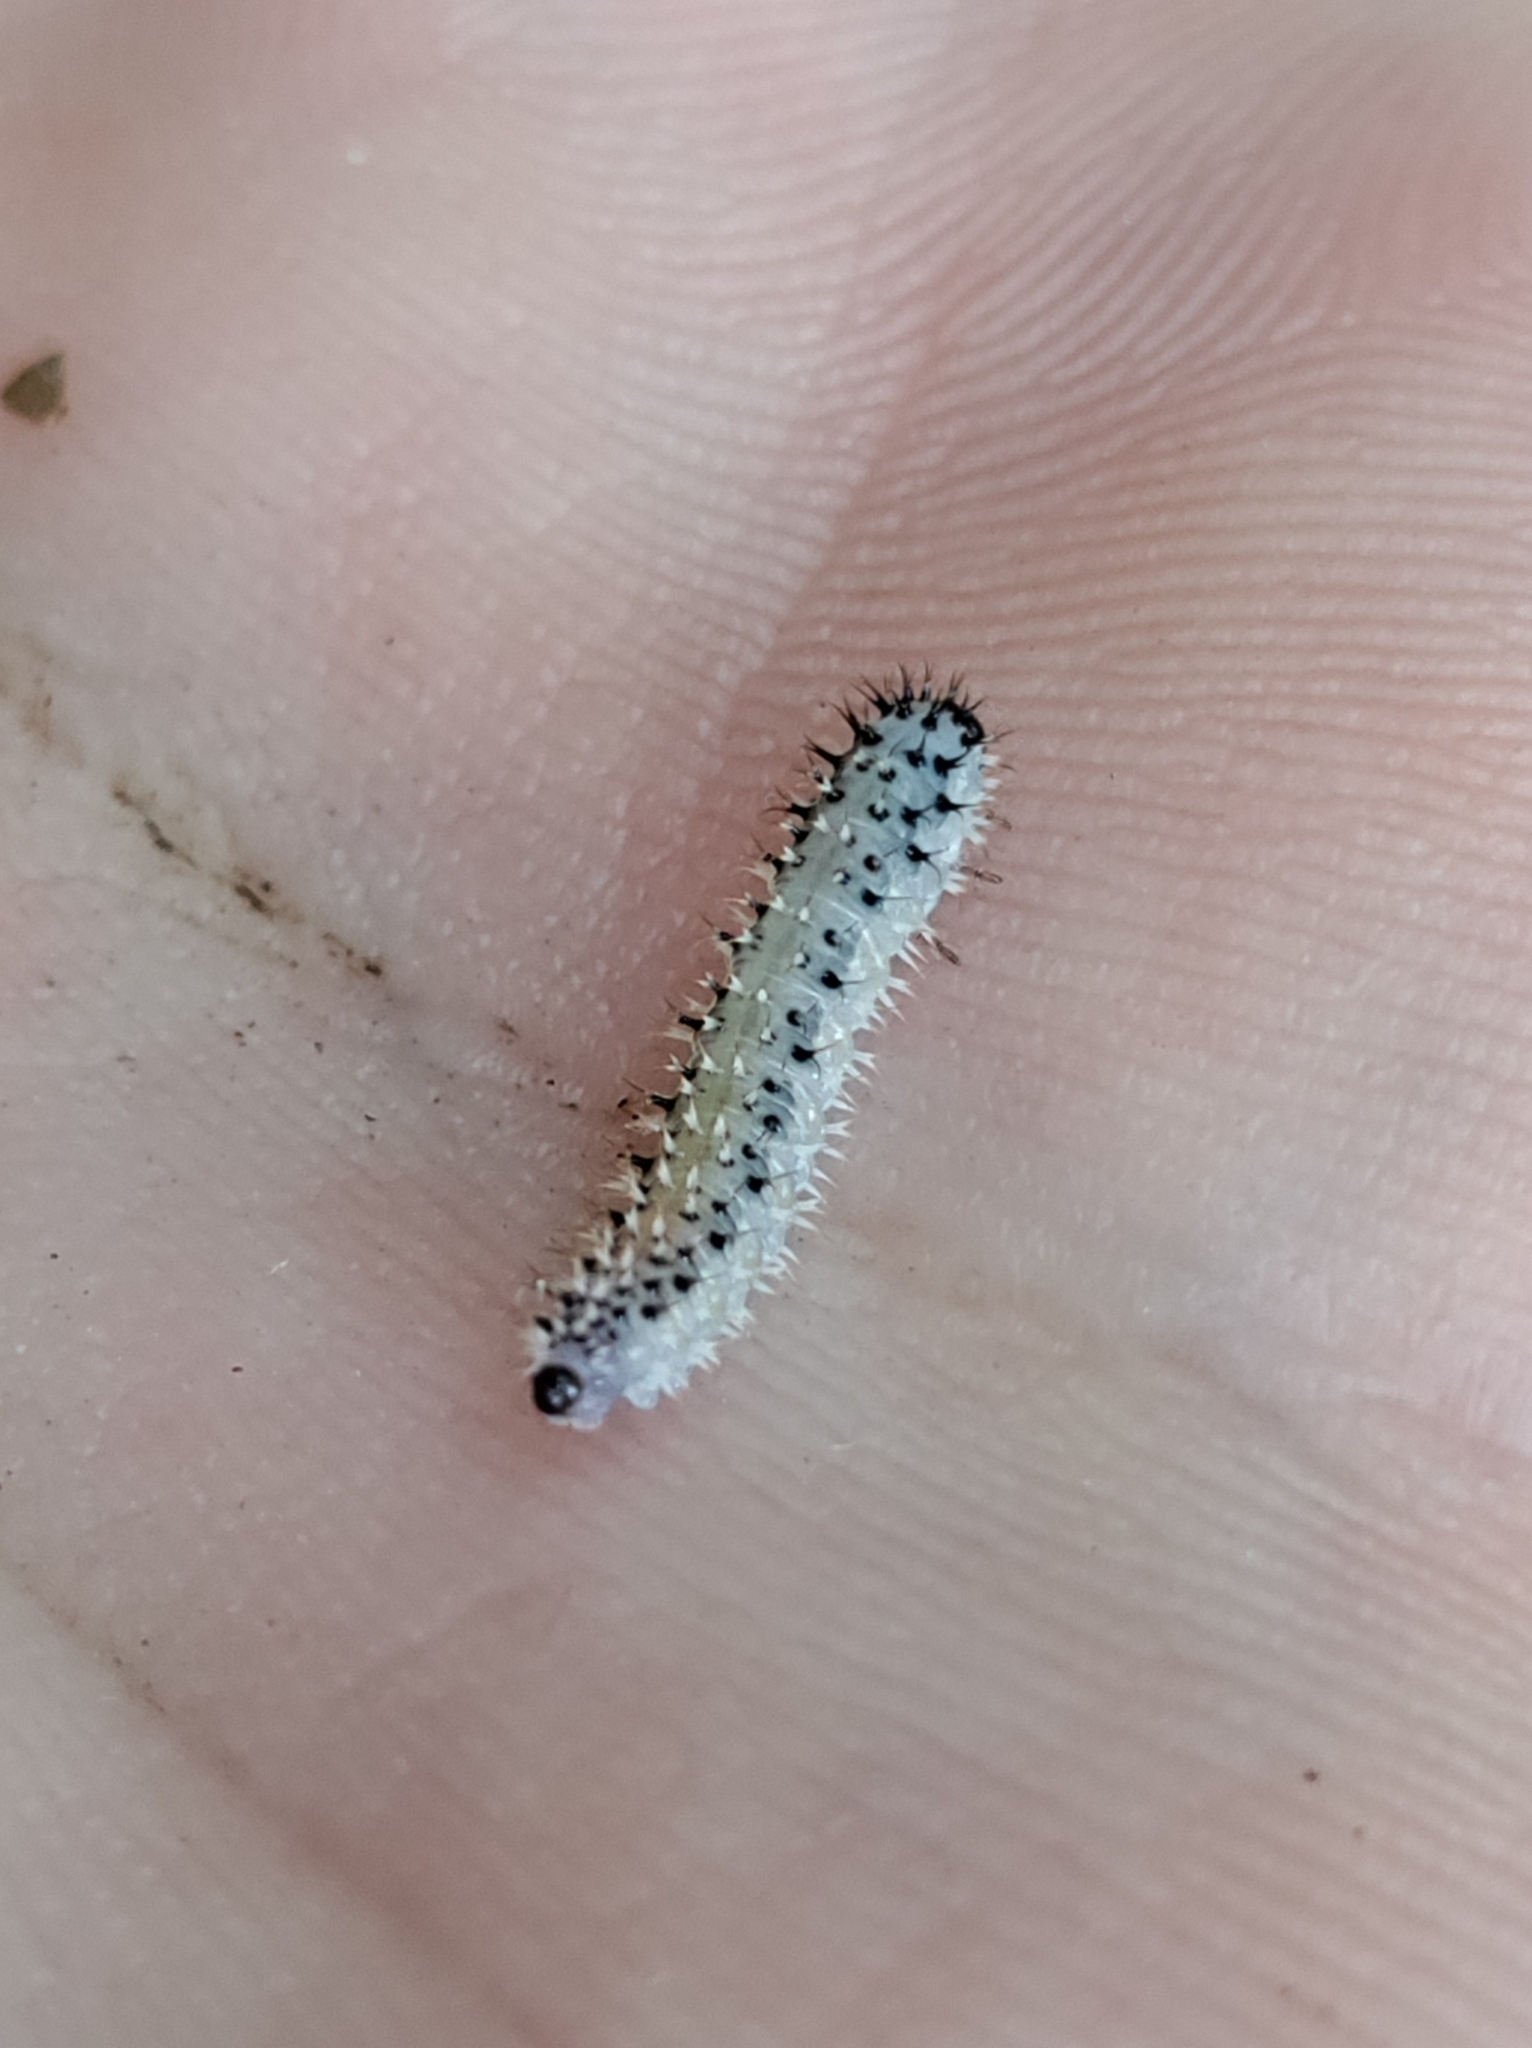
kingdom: Animalia
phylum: Arthropoda
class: Insecta
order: Hymenoptera
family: Tenthredinidae
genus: Eupareophora
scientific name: Eupareophora exarmata
